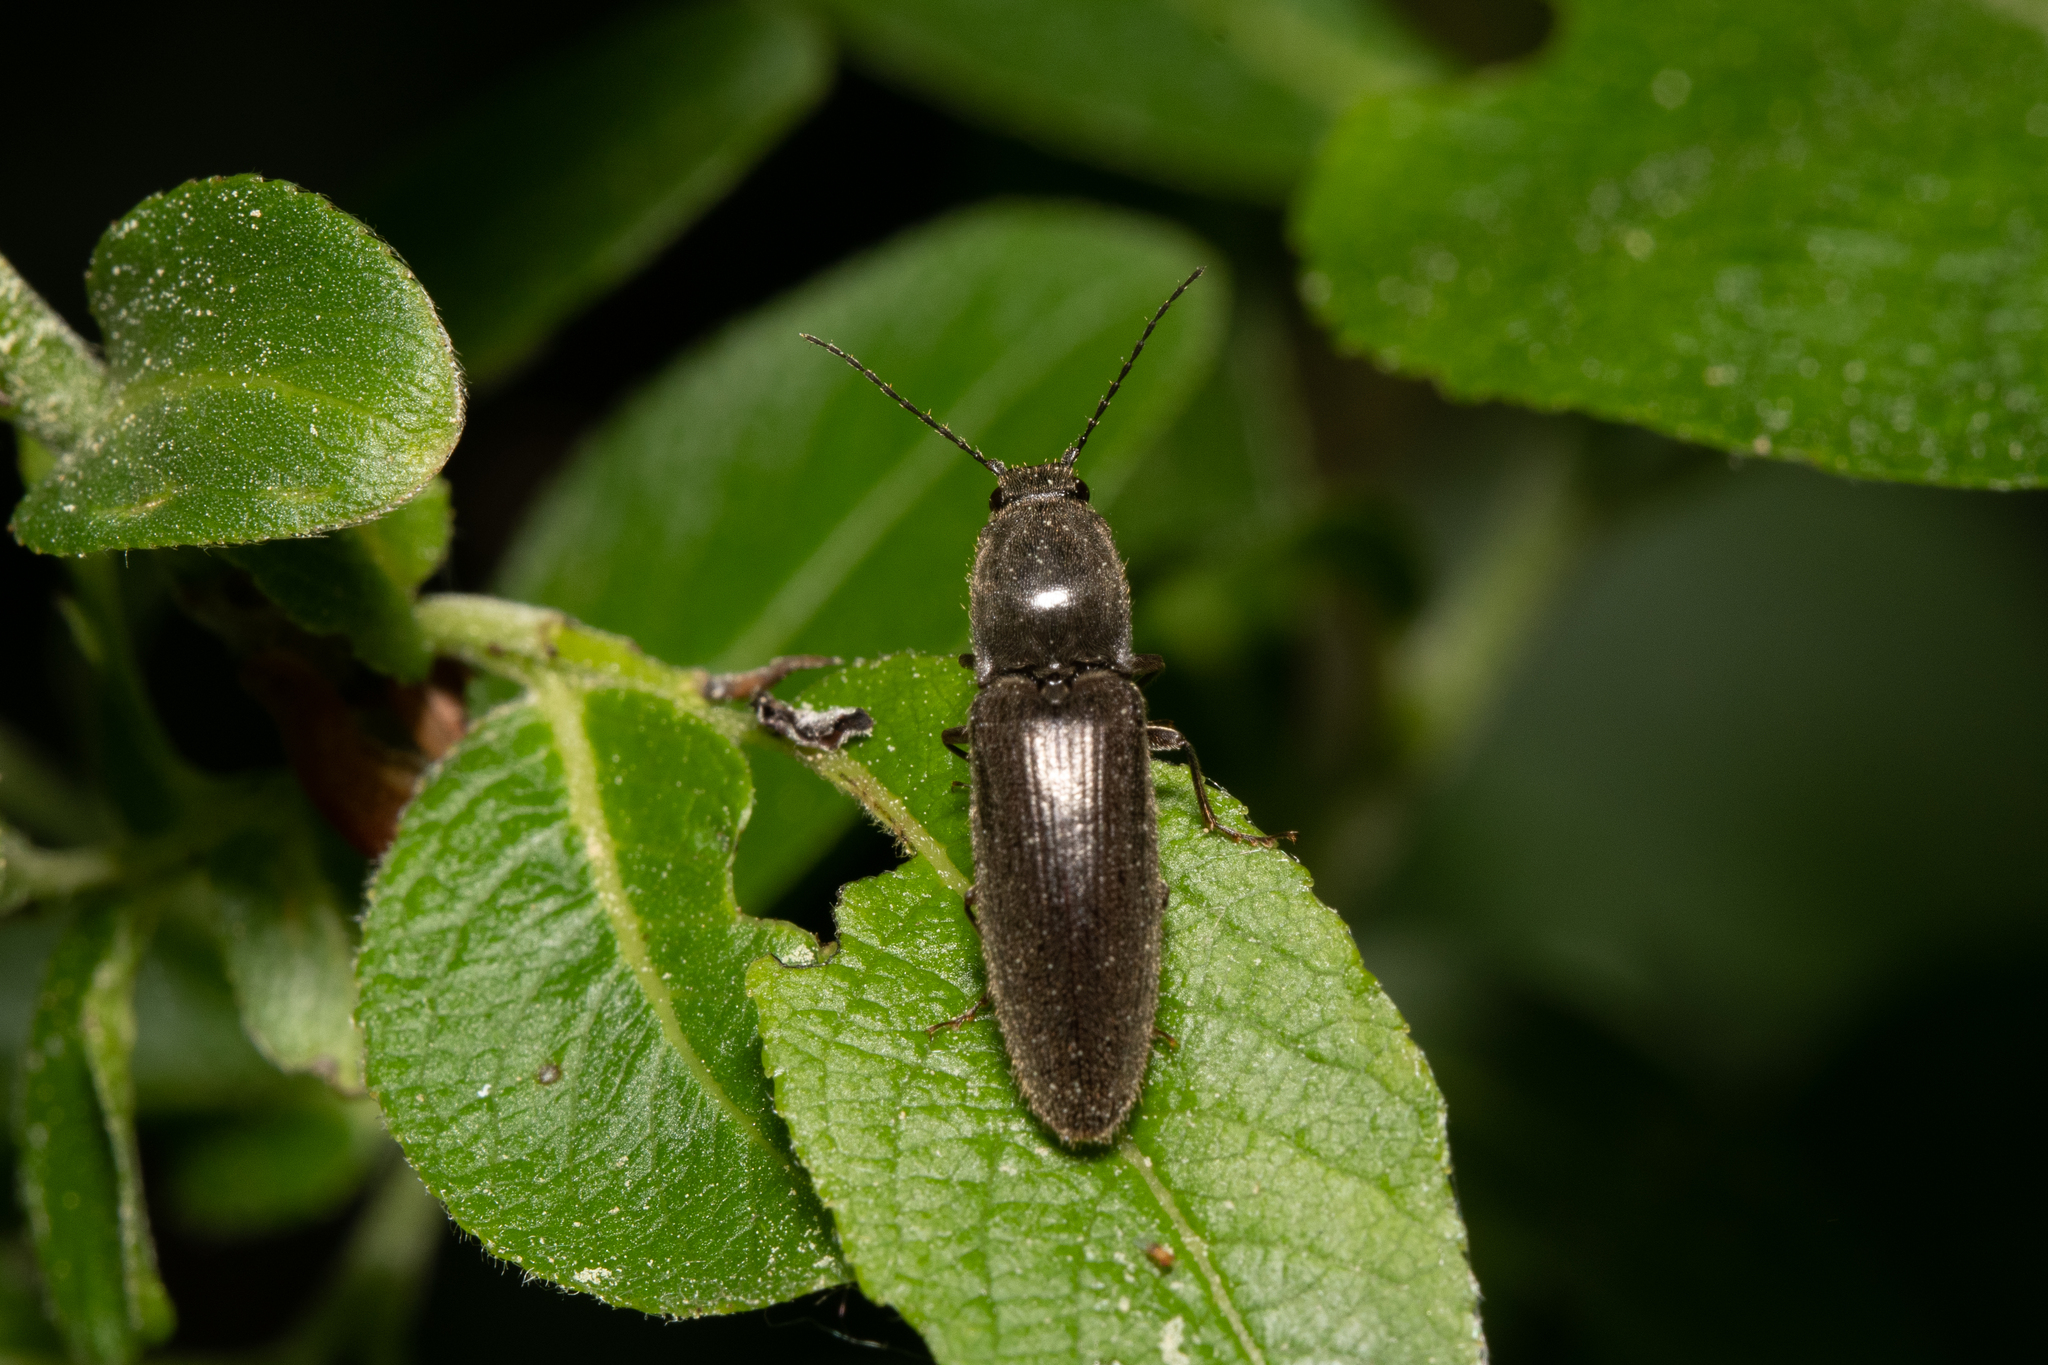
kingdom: Animalia
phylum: Arthropoda
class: Insecta
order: Coleoptera
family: Elateridae
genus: Athous
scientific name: Athous haemorrhoidalis
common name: Red-brown click beetle
